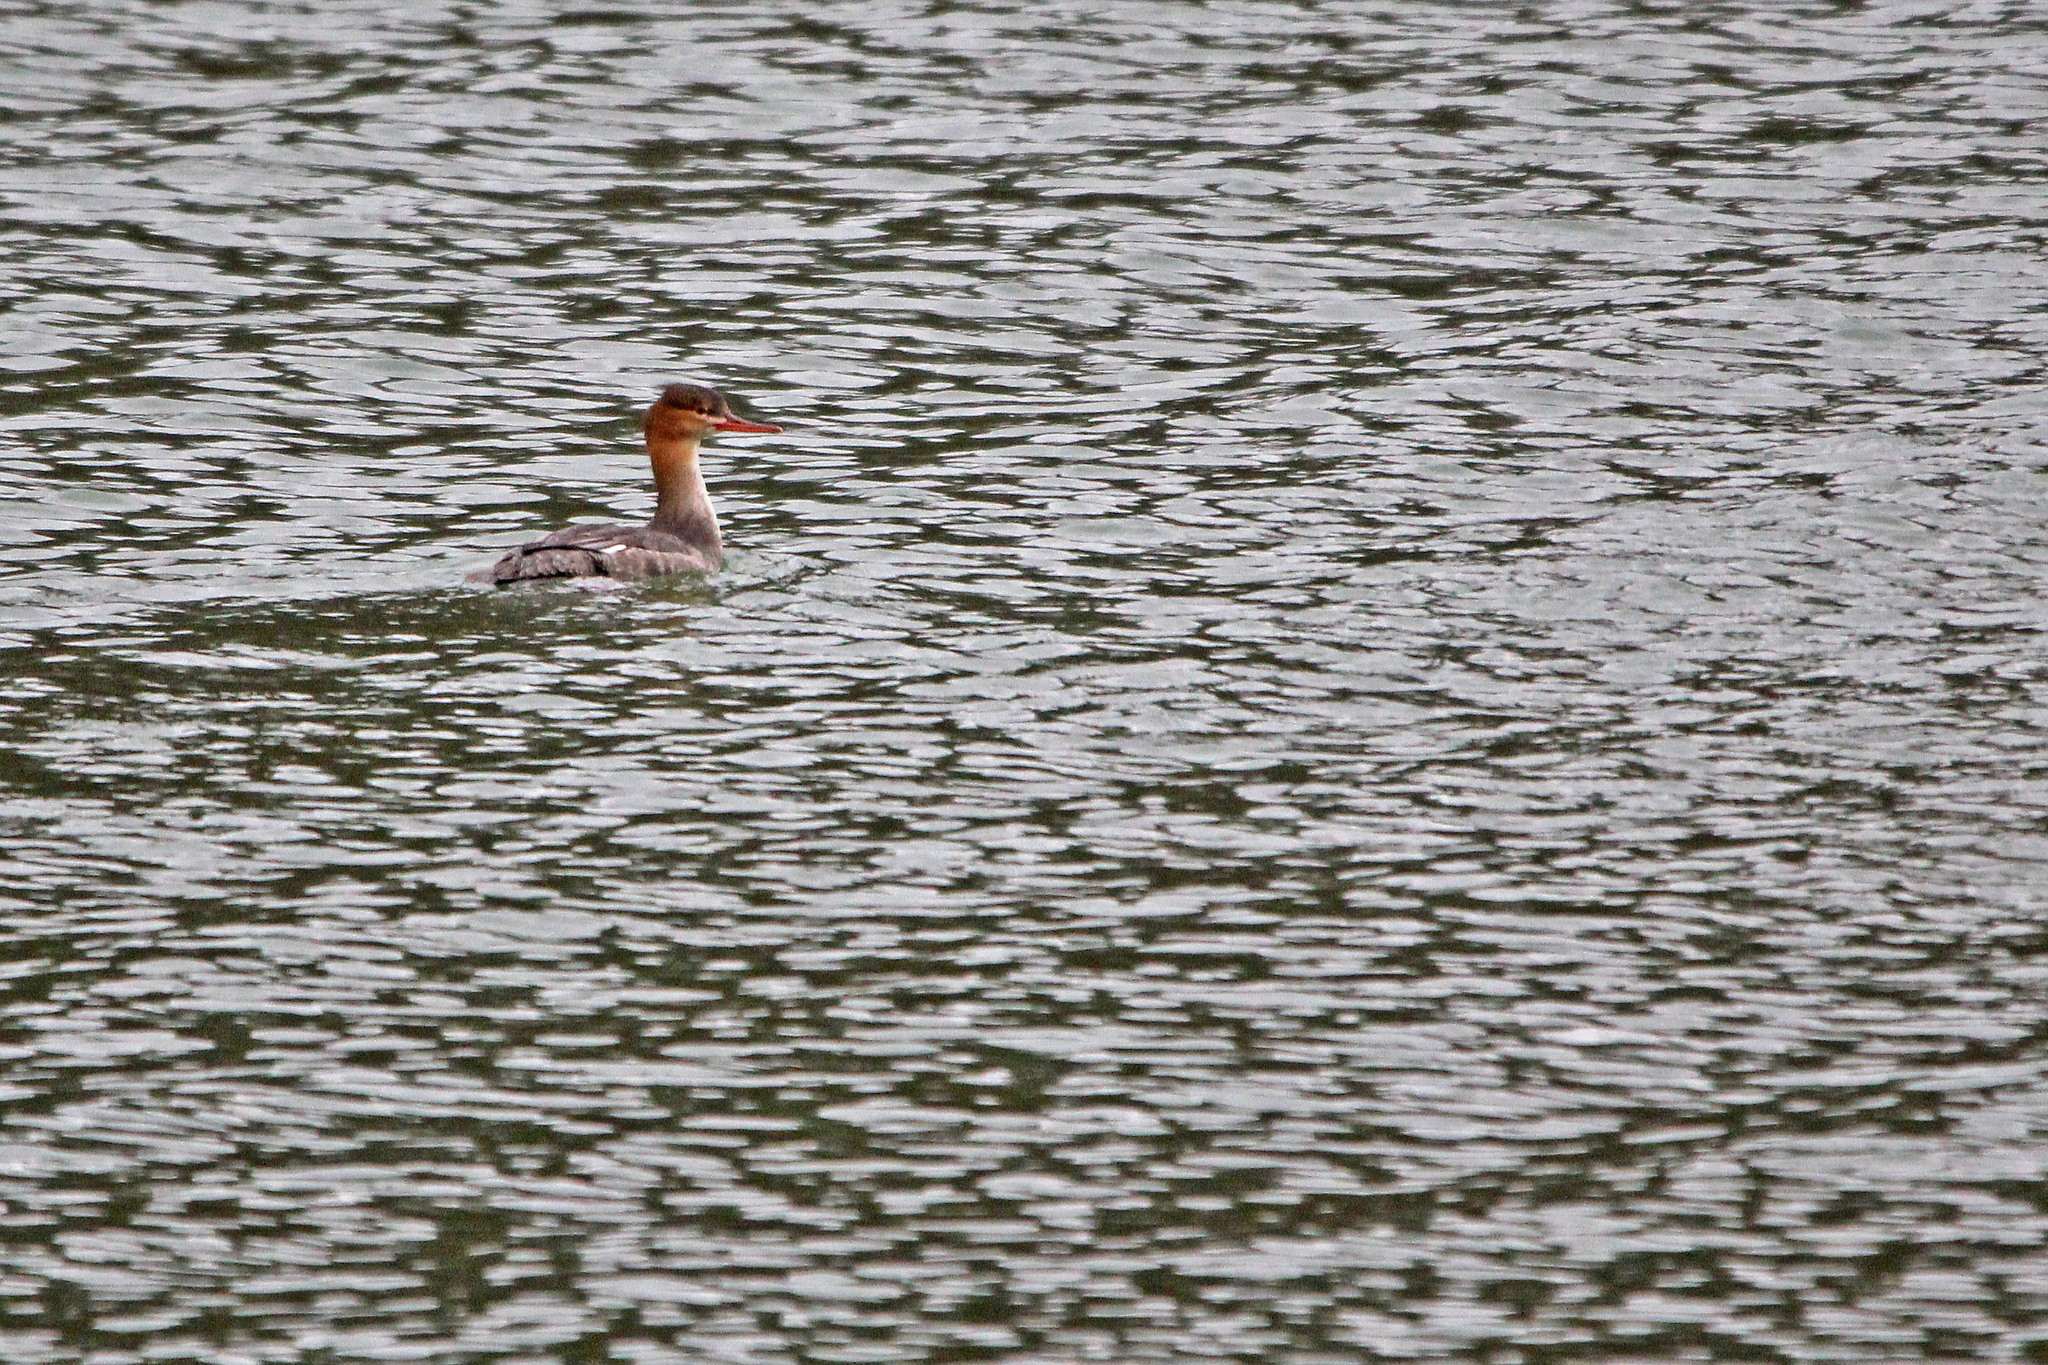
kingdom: Animalia
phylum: Chordata
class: Aves
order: Anseriformes
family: Anatidae
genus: Mergus
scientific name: Mergus serrator
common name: Red-breasted merganser
